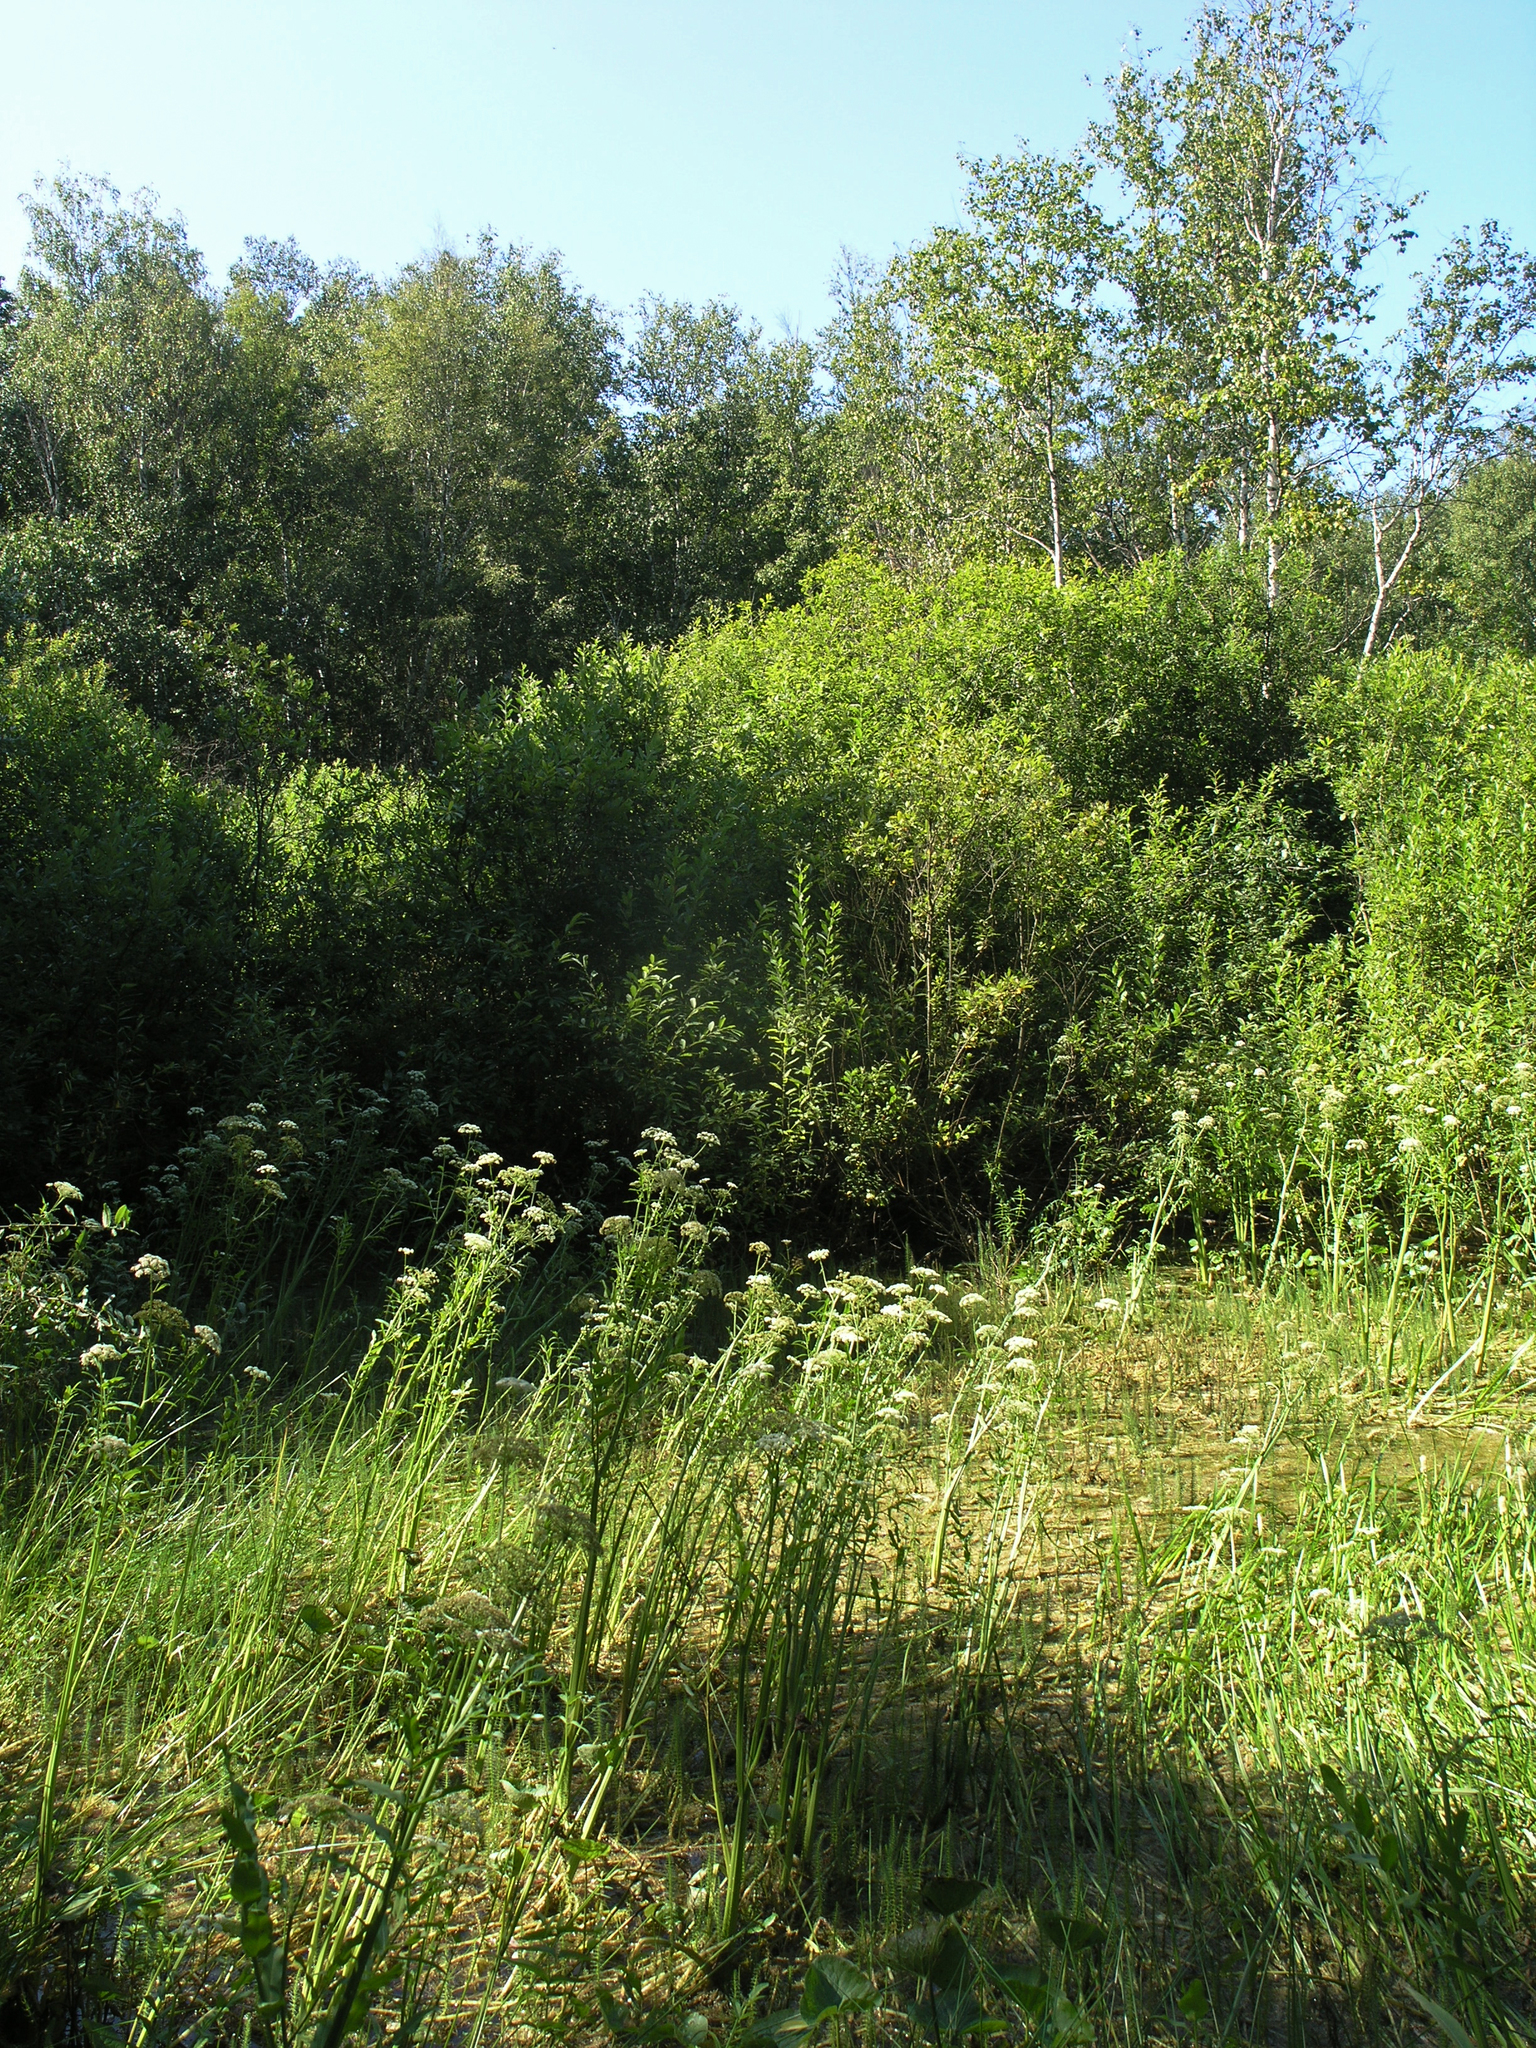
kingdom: Plantae
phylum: Tracheophyta
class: Magnoliopsida
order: Apiales
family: Apiaceae
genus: Sium
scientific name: Sium latifolium
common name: Greater water-parsnip
